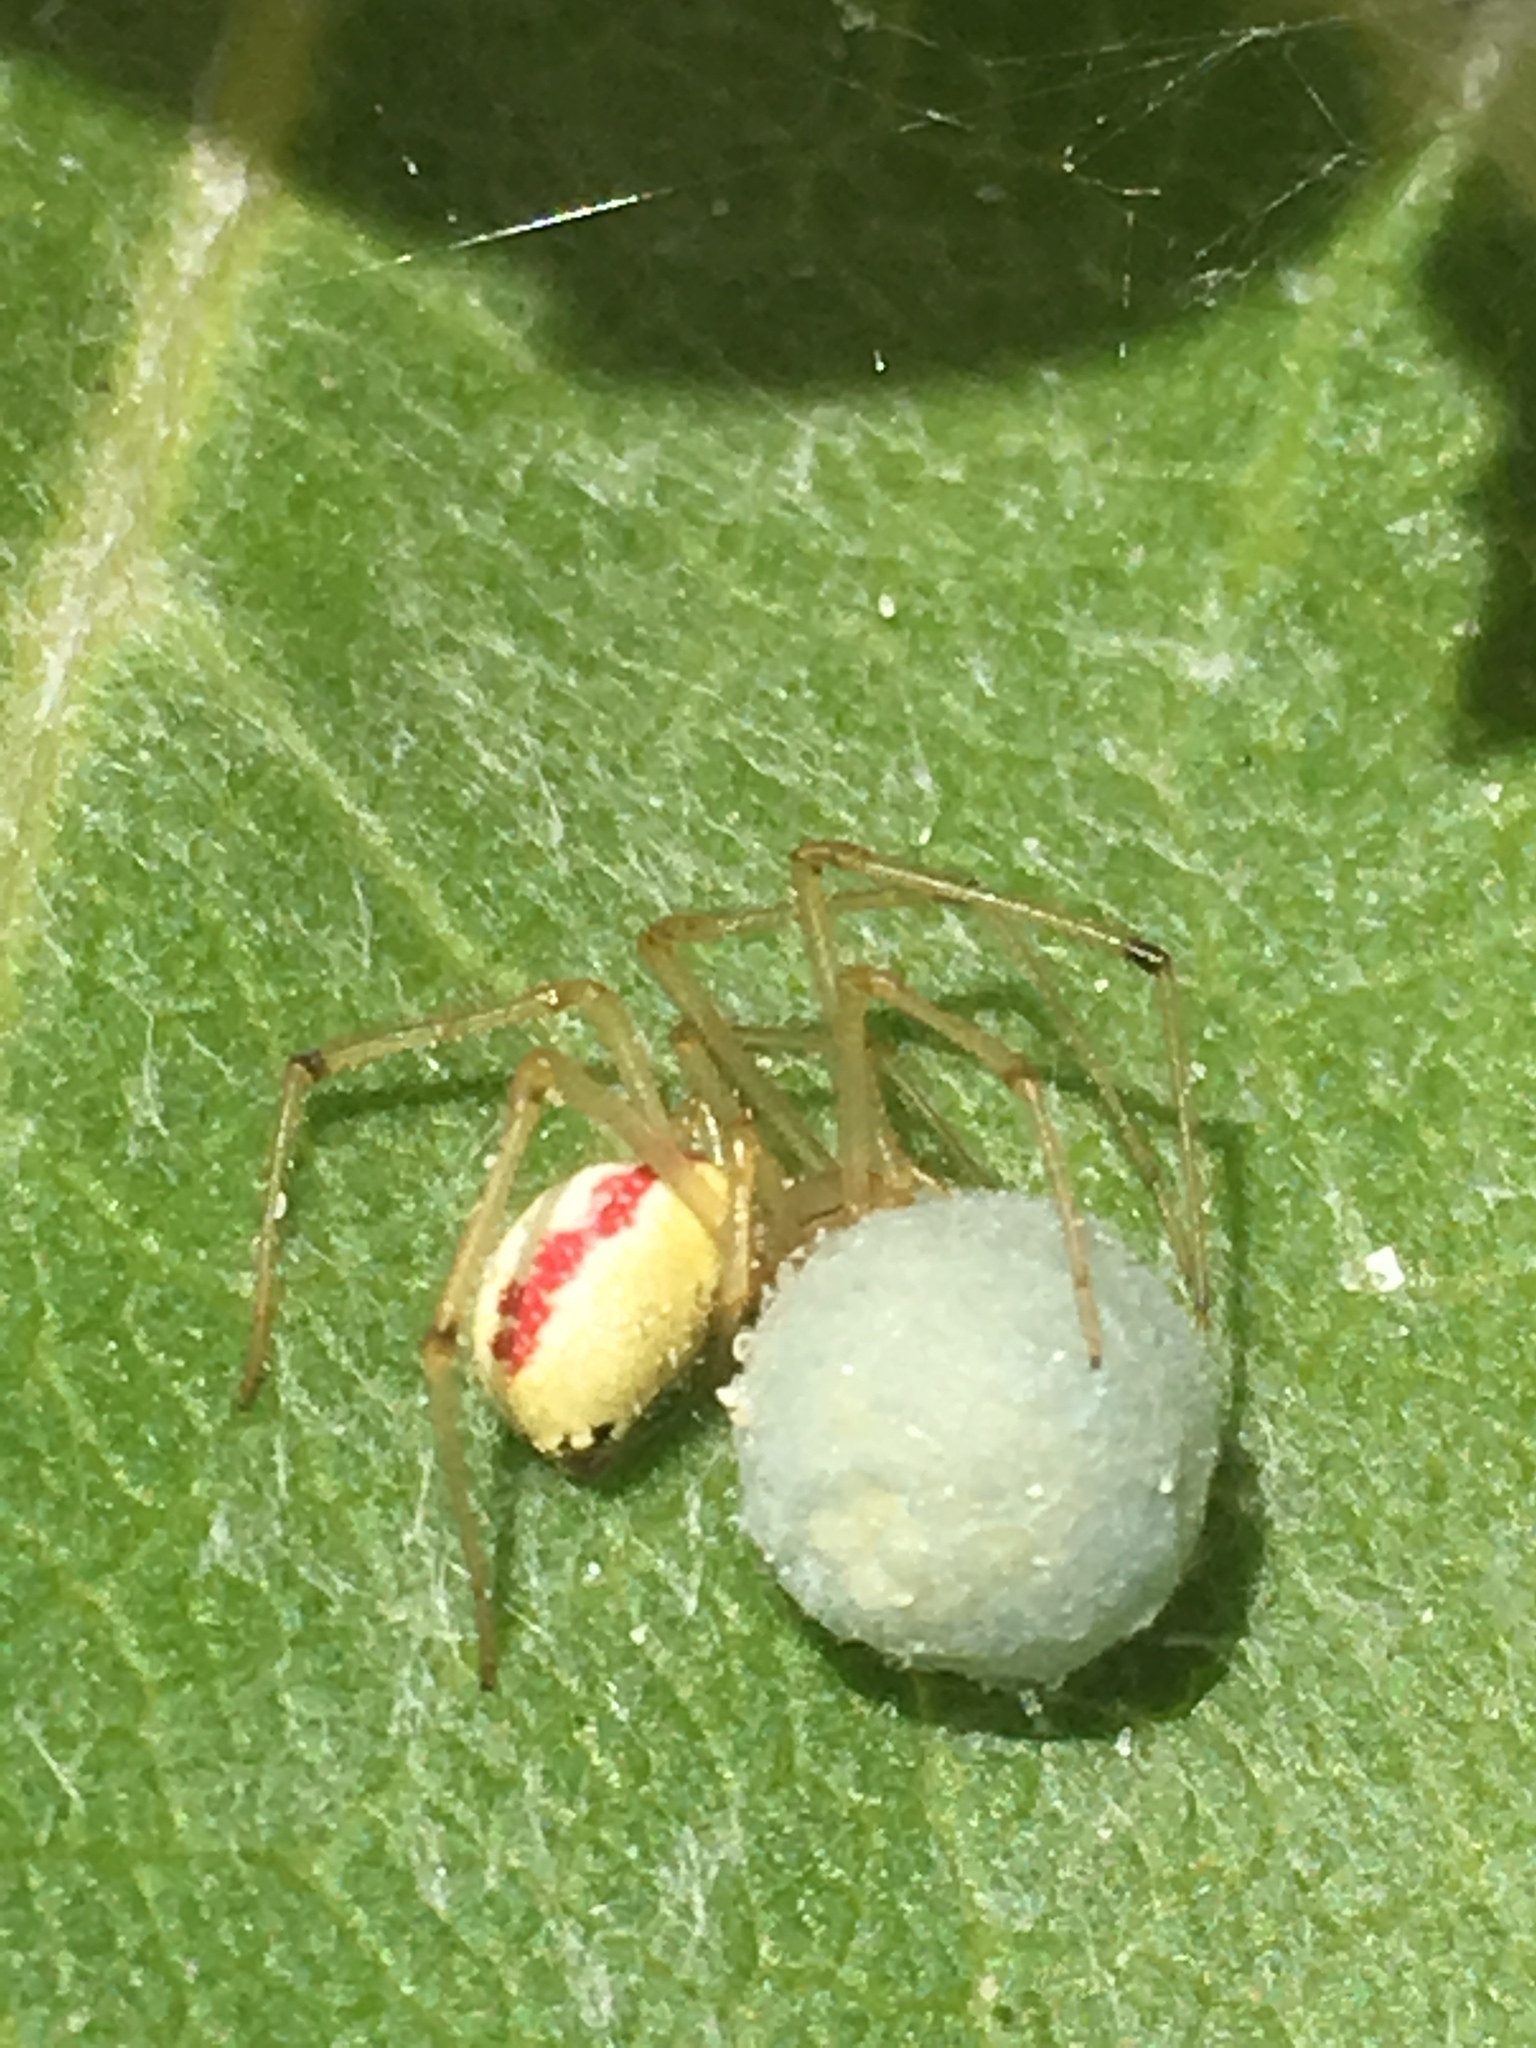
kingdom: Animalia
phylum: Arthropoda
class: Arachnida
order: Araneae
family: Theridiidae
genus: Enoplognatha
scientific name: Enoplognatha
